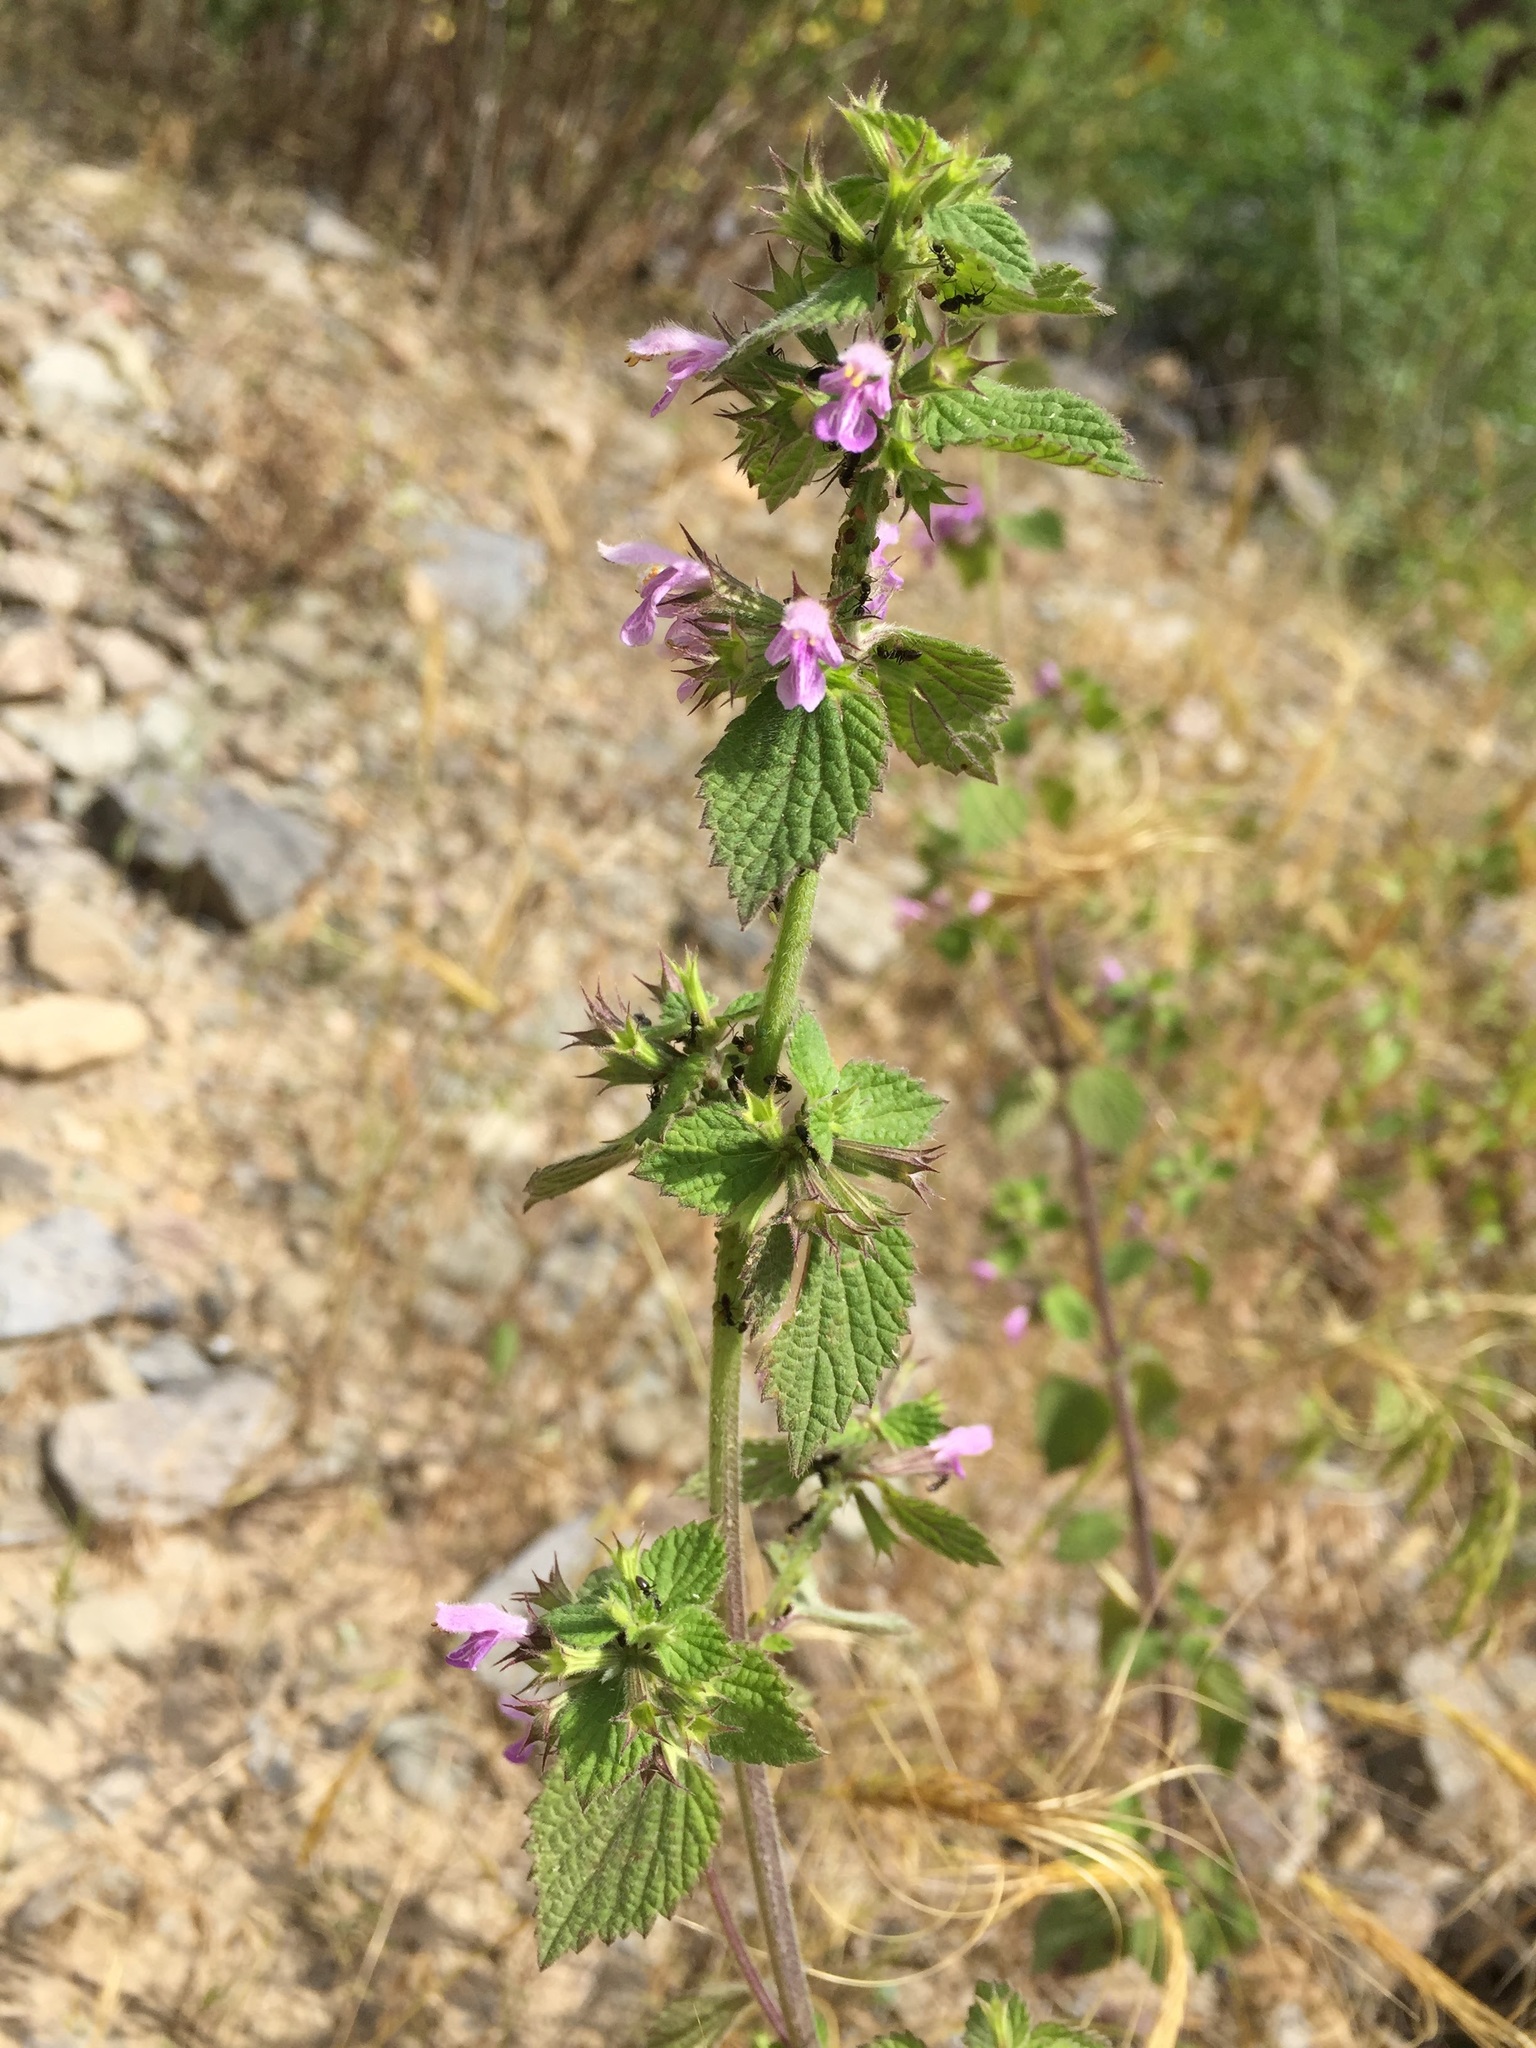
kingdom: Plantae
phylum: Tracheophyta
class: Magnoliopsida
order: Lamiales
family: Lamiaceae
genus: Ballota
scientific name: Ballota nigra
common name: Black horehound
